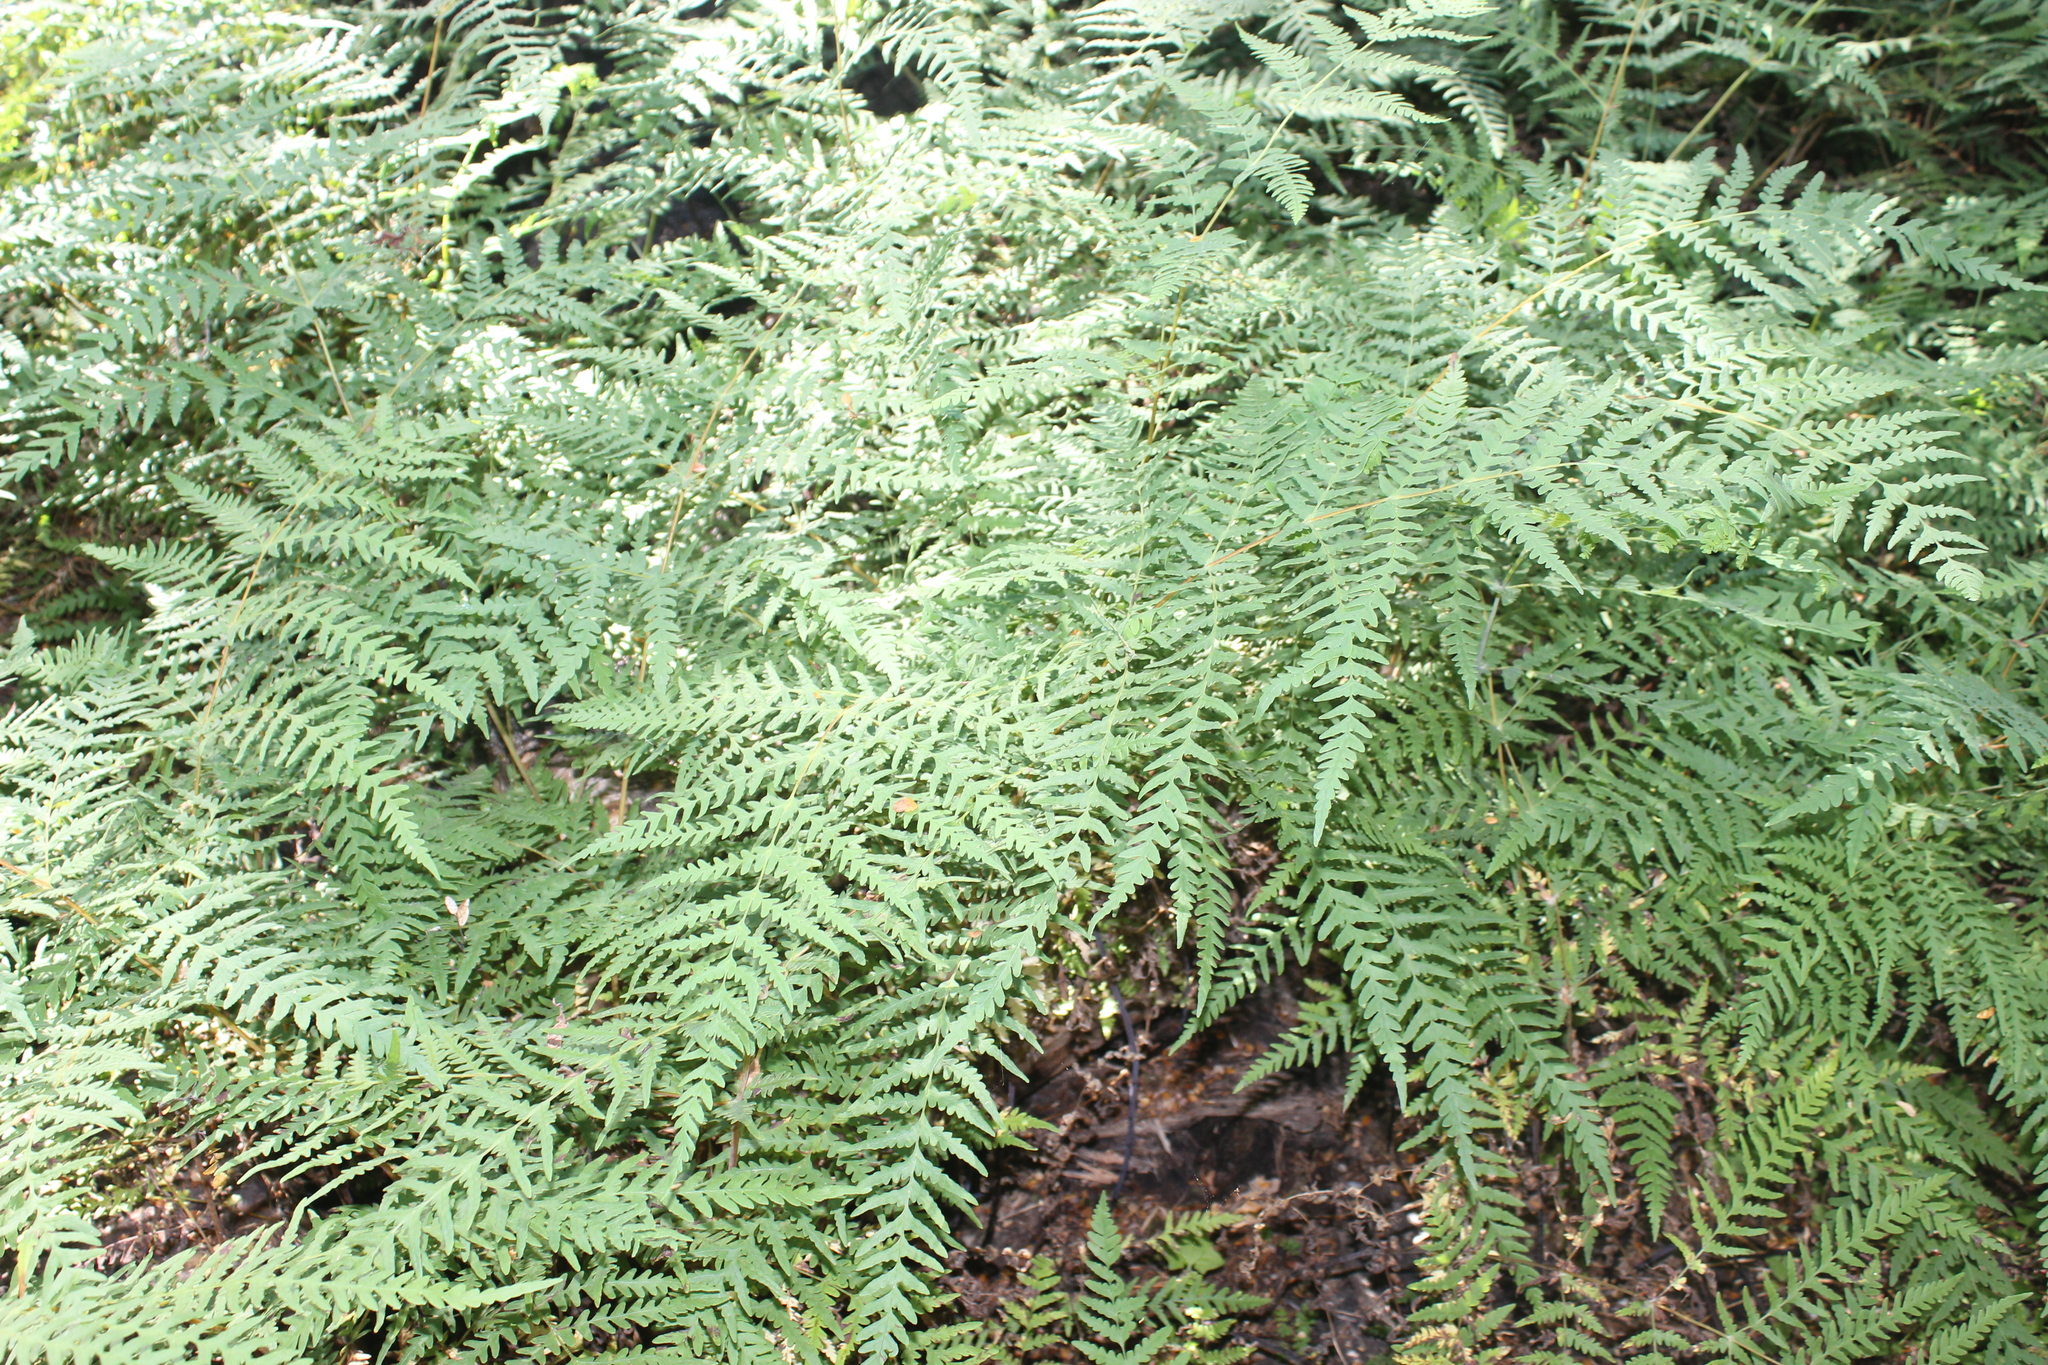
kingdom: Plantae
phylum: Tracheophyta
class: Polypodiopsida
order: Polypodiales
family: Dennstaedtiaceae
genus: Histiopteris
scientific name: Histiopteris incisa
